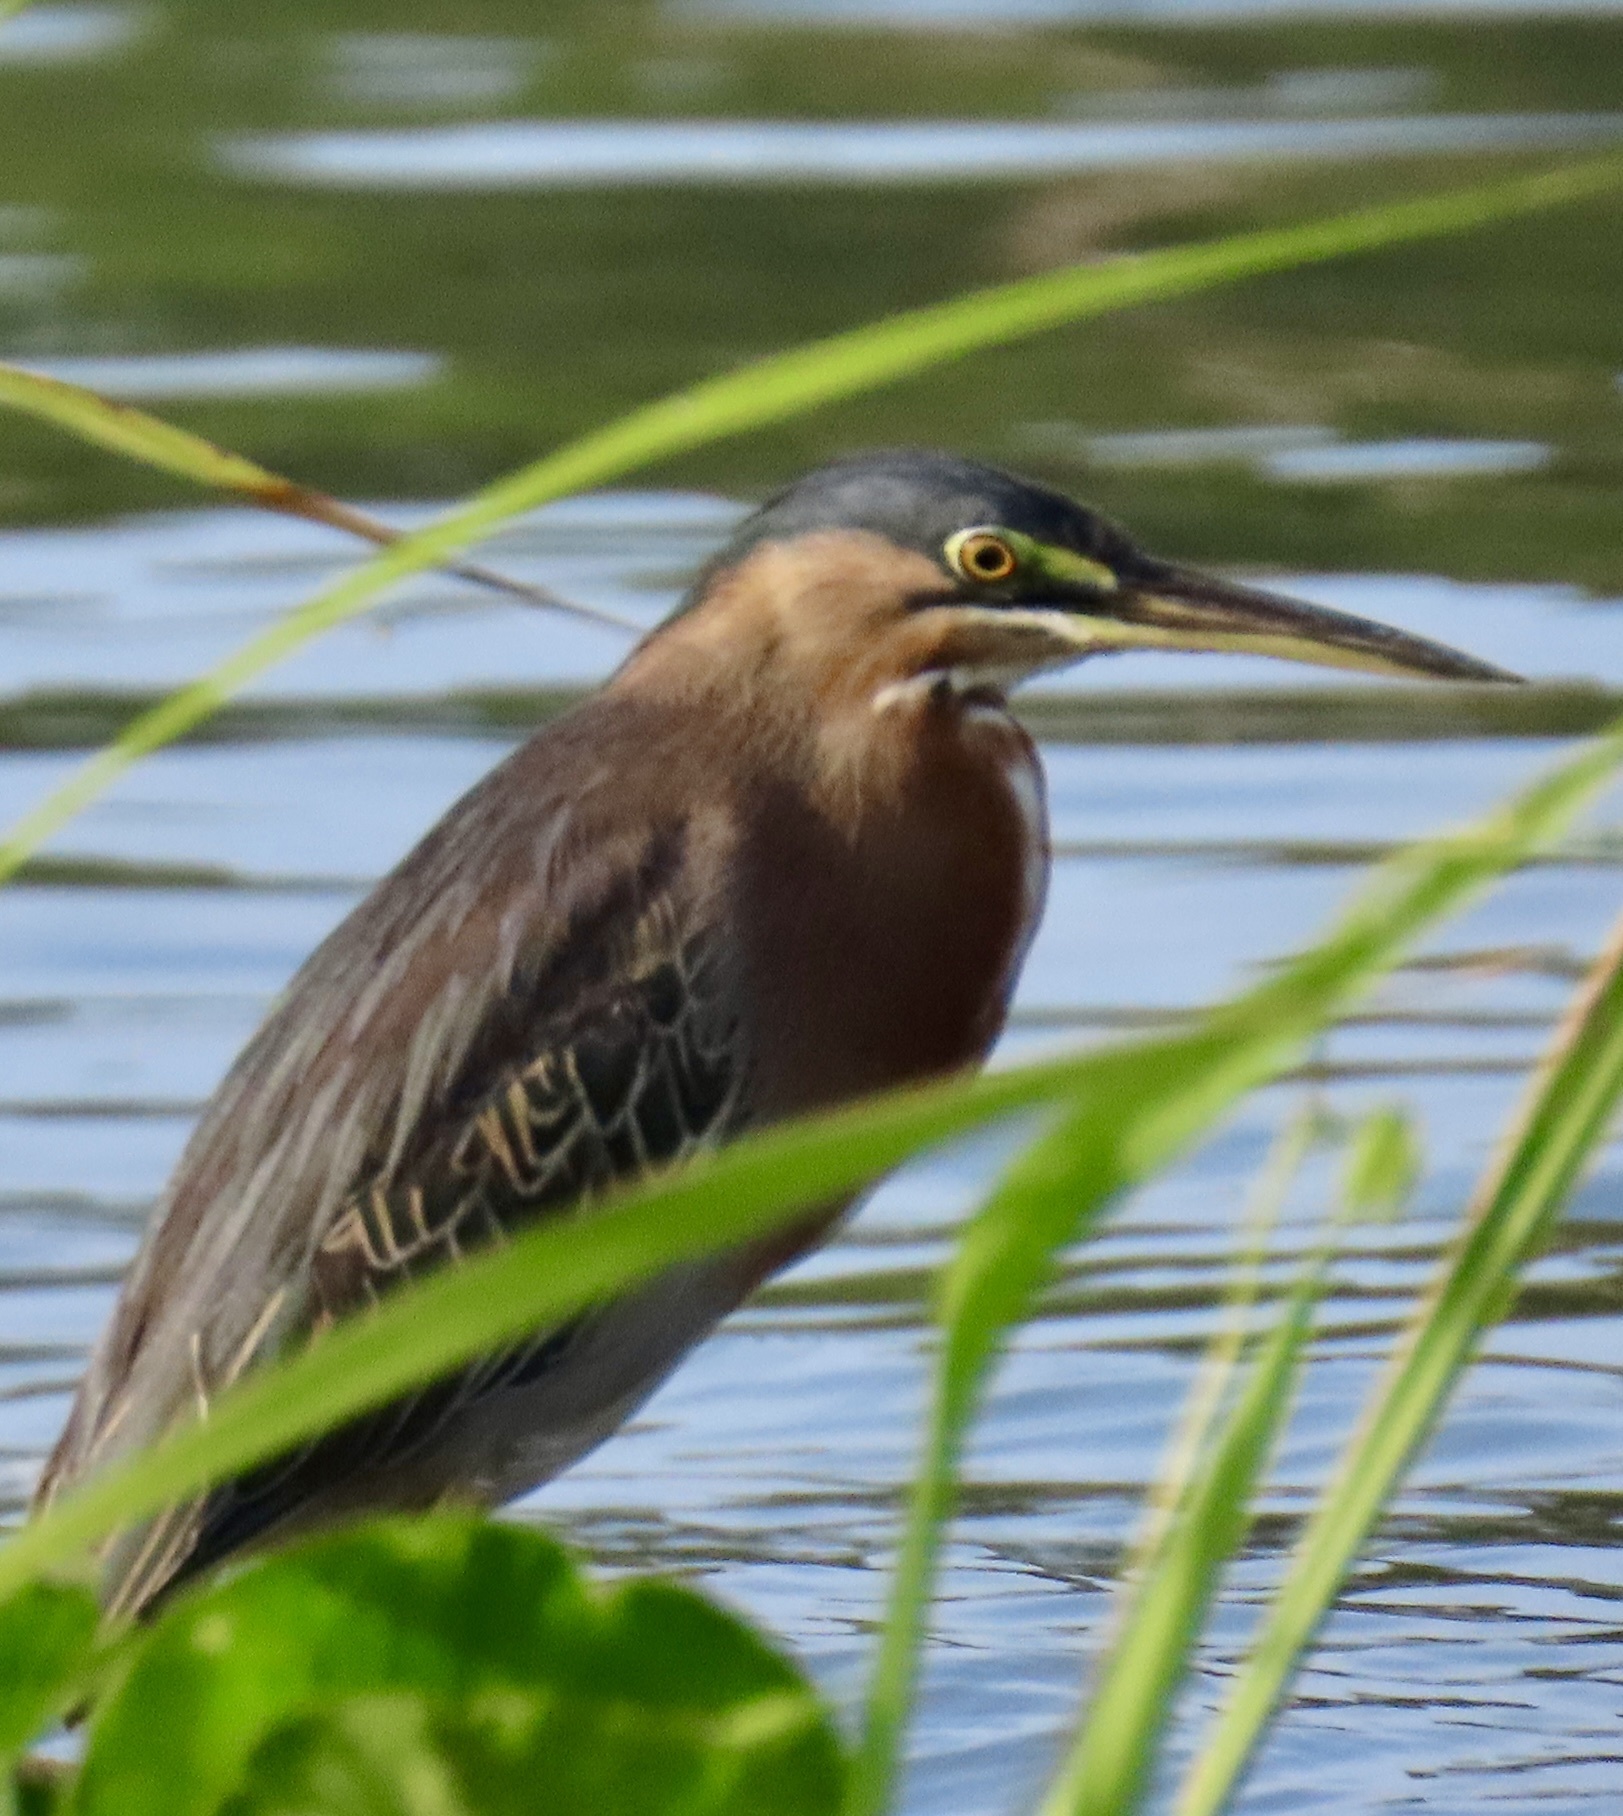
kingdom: Animalia
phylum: Chordata
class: Aves
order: Pelecaniformes
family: Ardeidae
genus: Butorides
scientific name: Butorides virescens
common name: Green heron
